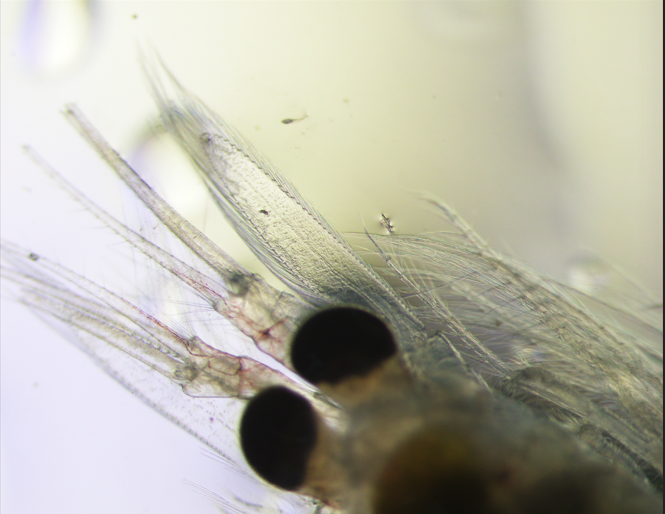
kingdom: Animalia
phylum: Arthropoda
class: Malacostraca
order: Mysida
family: Mysidae
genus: Mysis
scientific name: Mysis nordenskioldi
